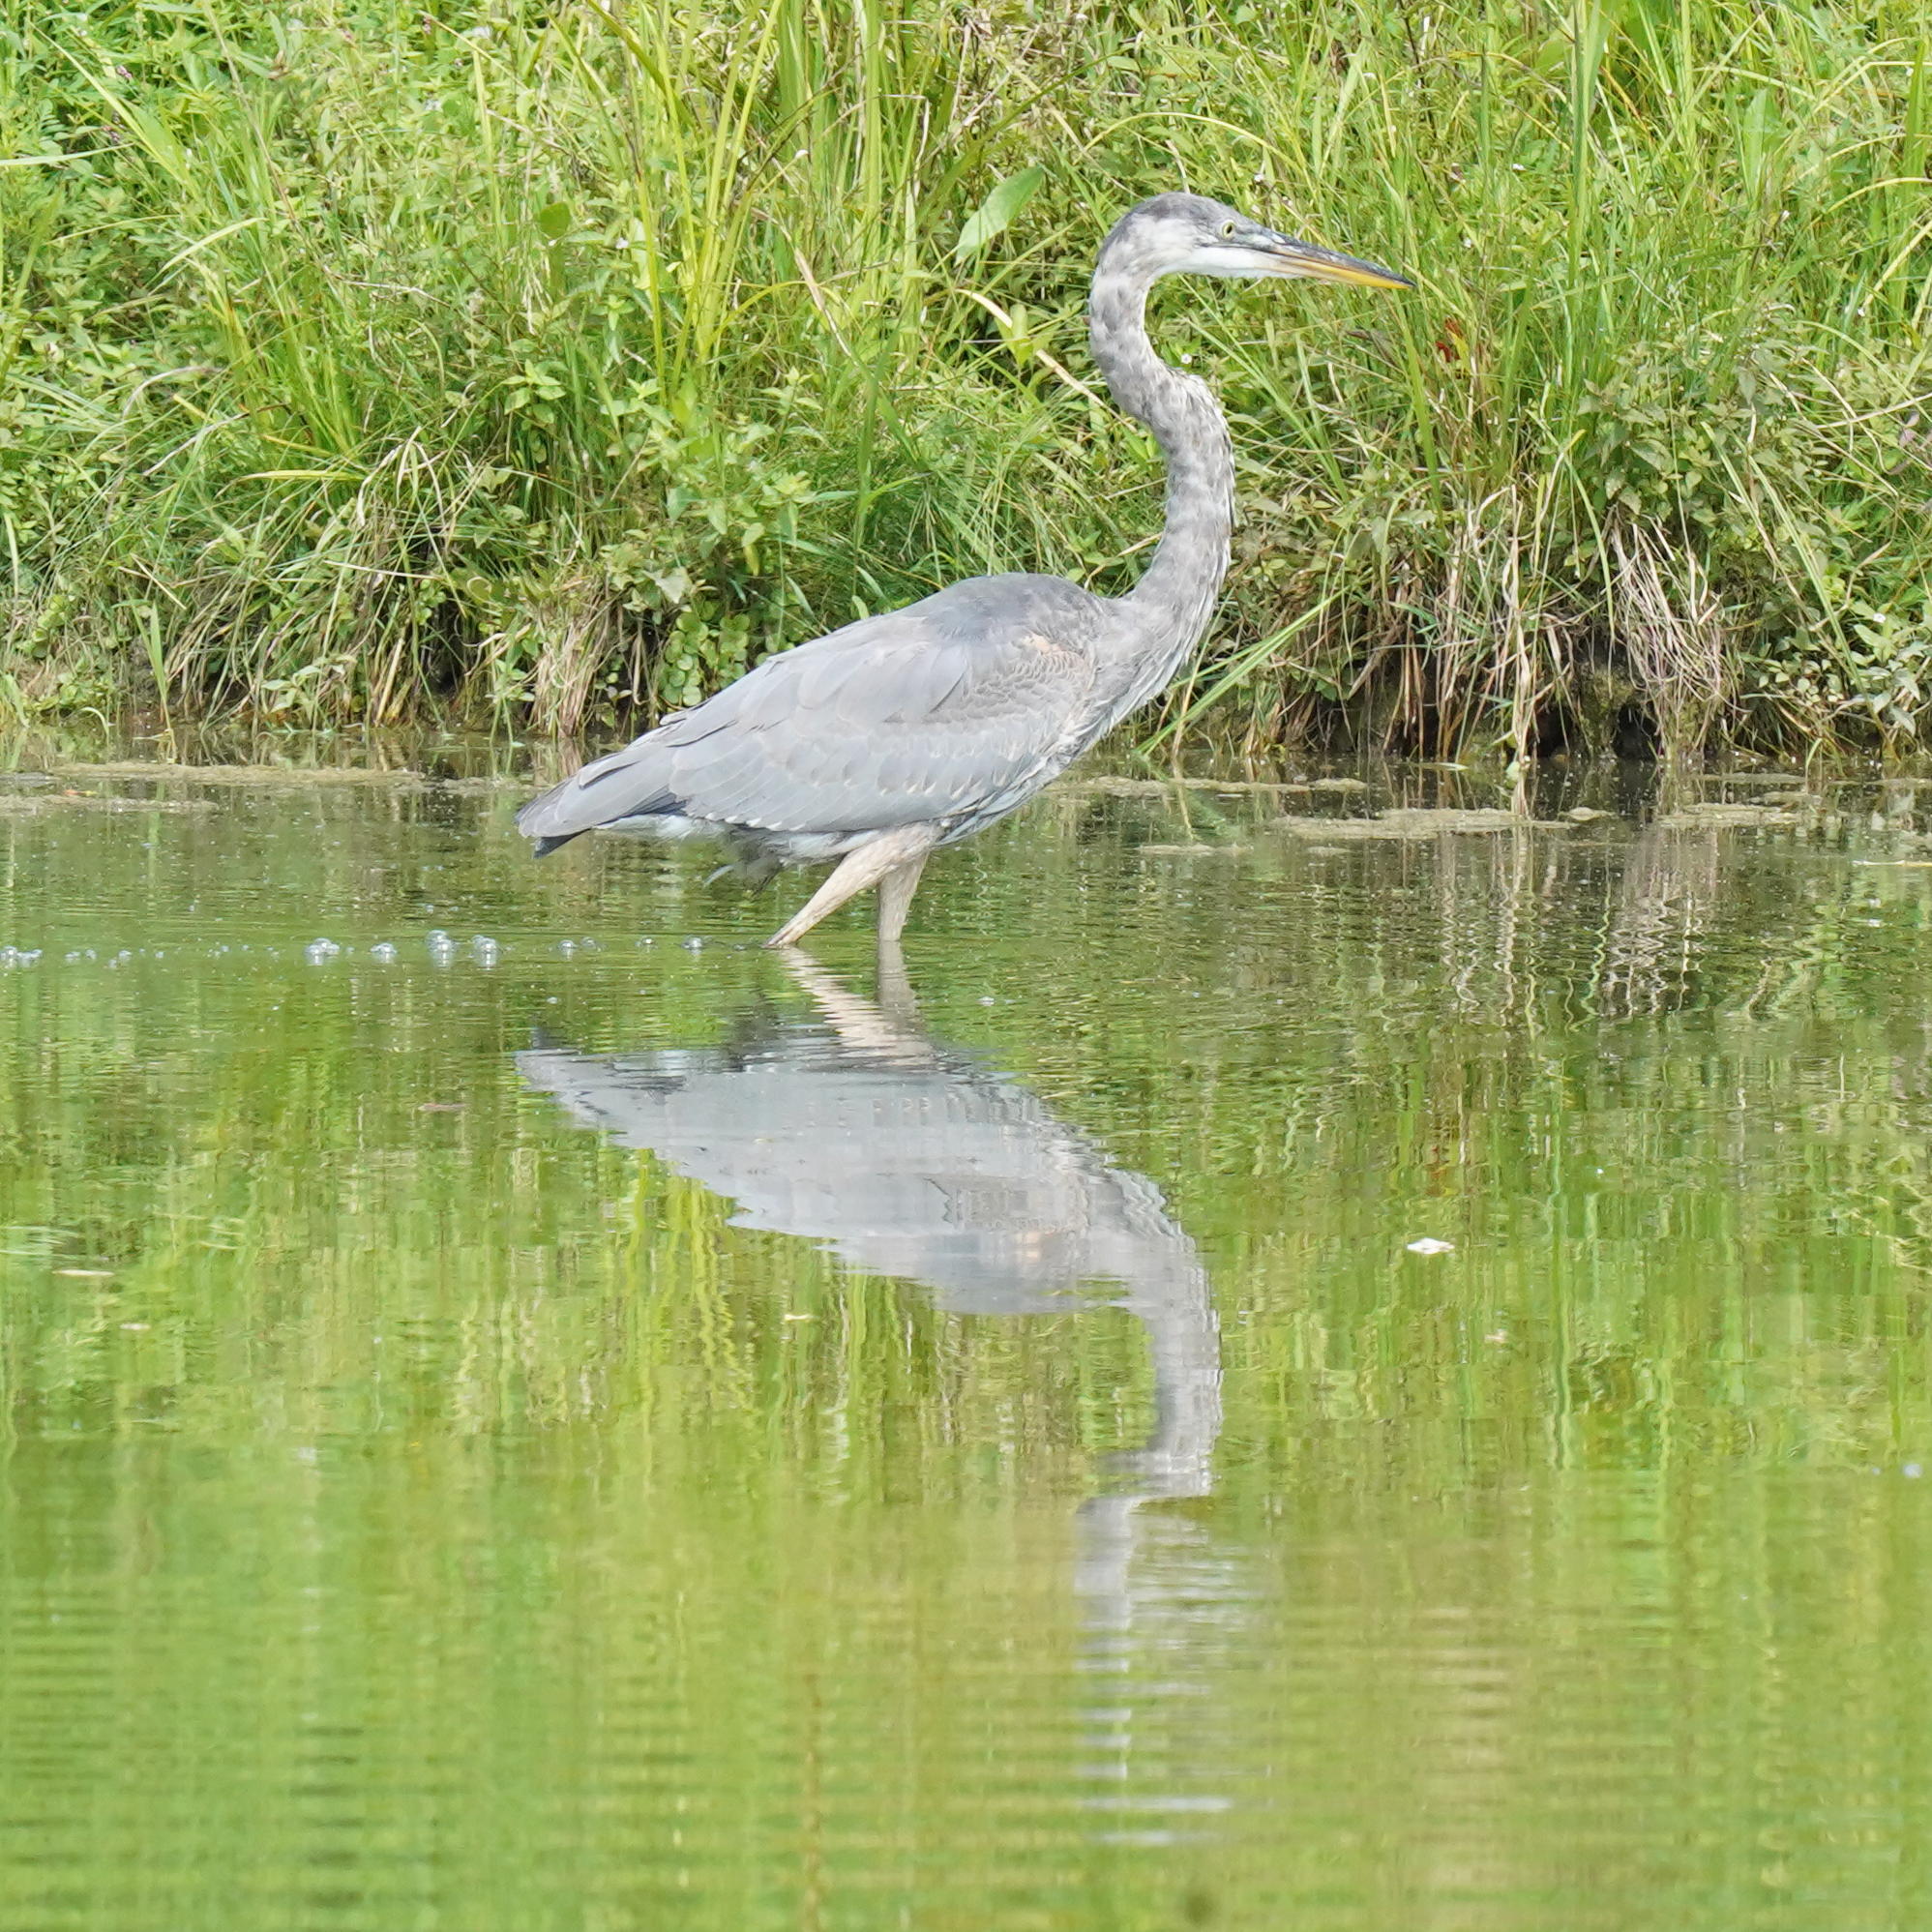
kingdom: Animalia
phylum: Chordata
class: Aves
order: Pelecaniformes
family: Ardeidae
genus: Ardea
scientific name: Ardea herodias
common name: Great blue heron
